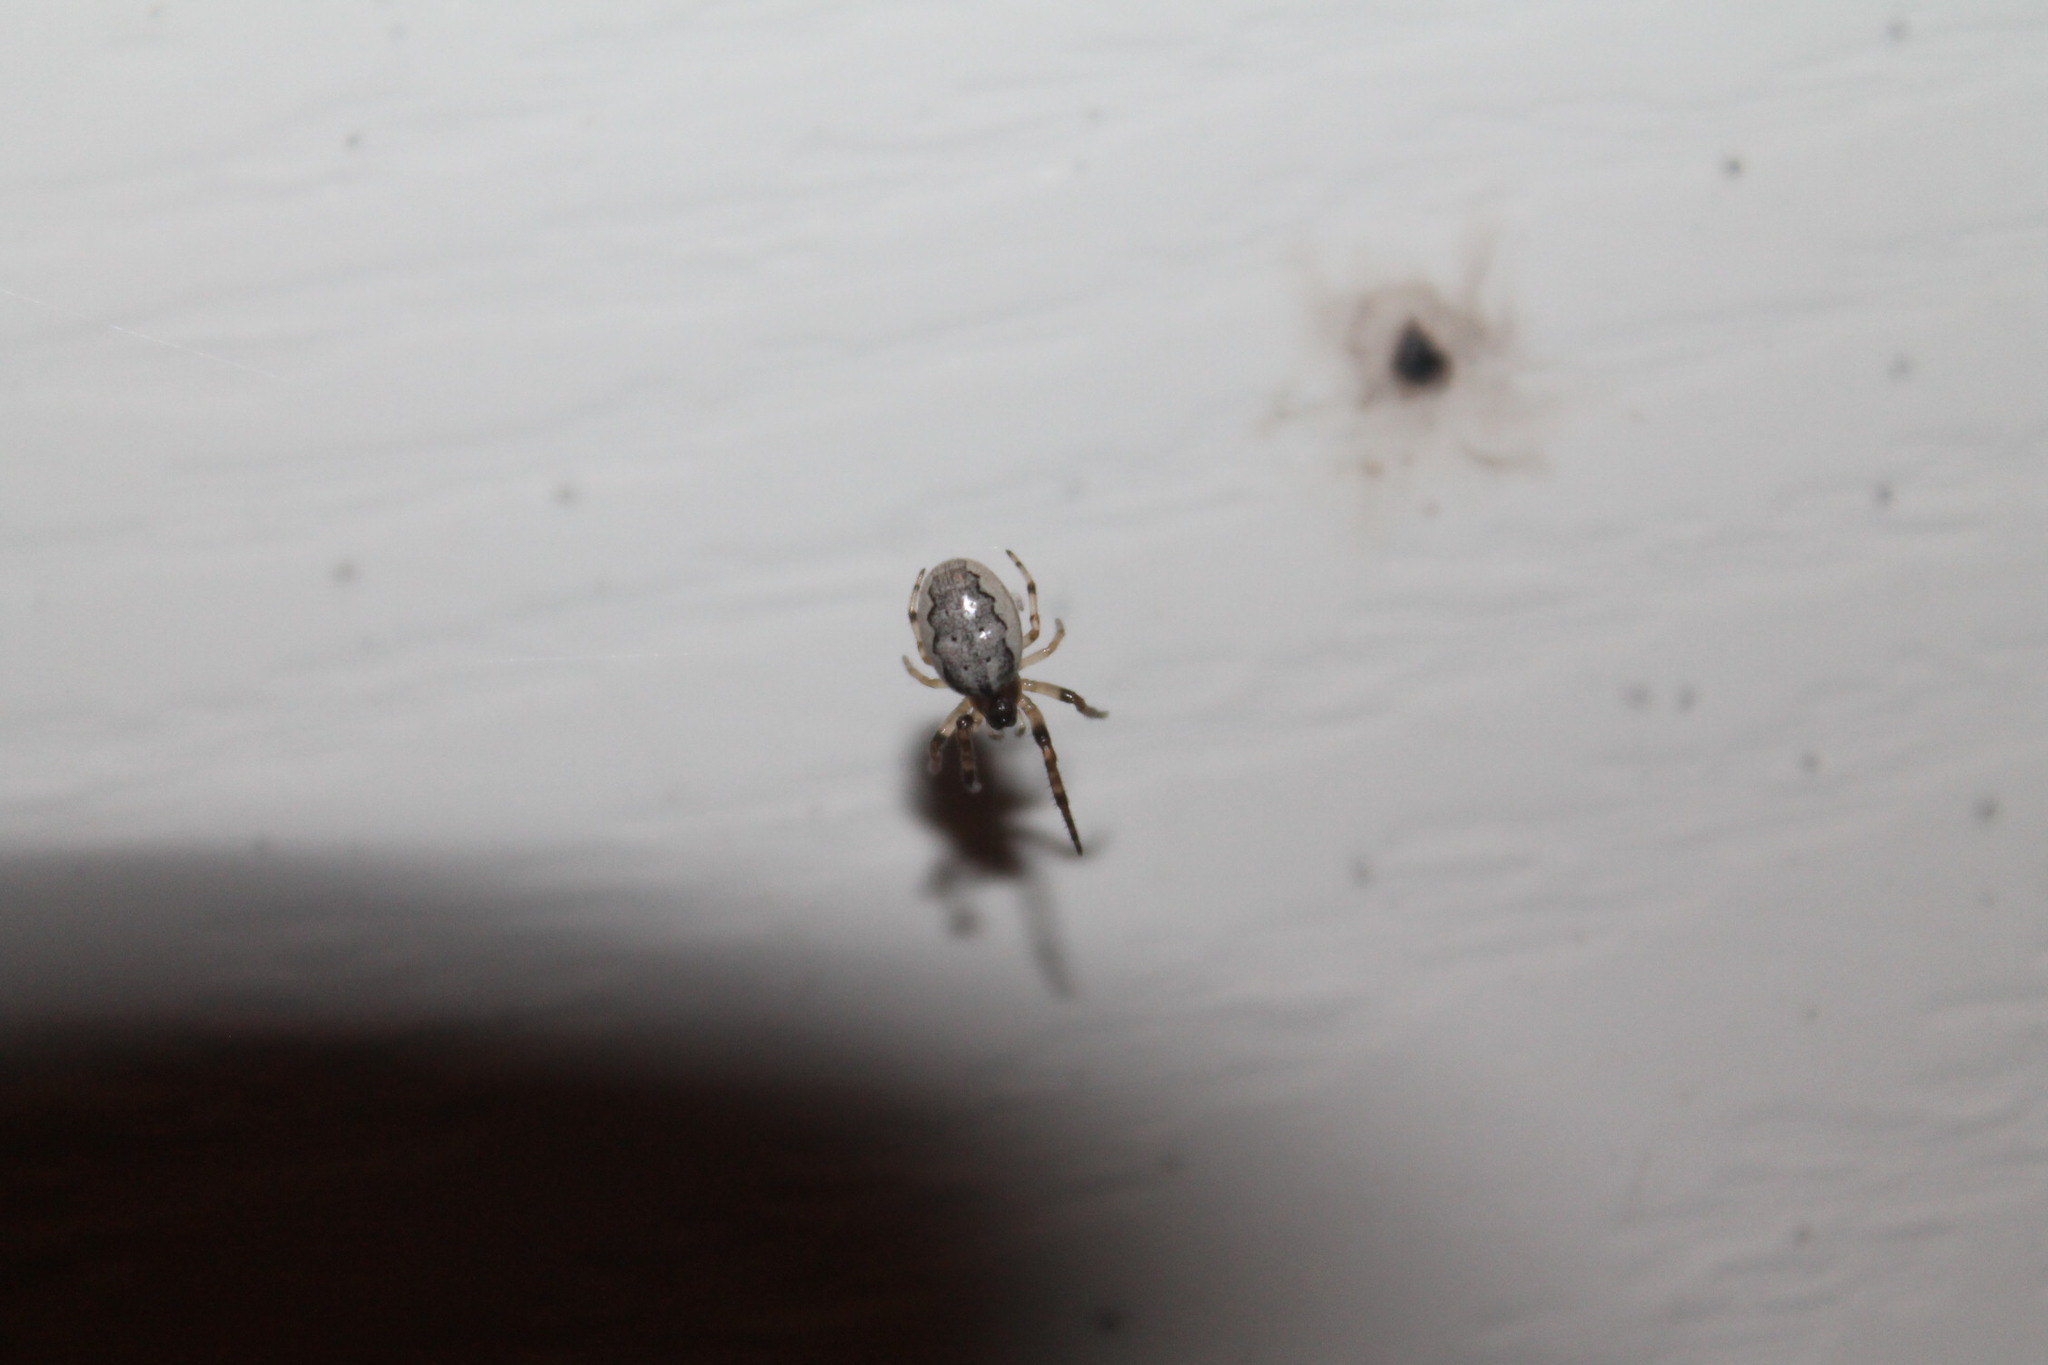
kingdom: Animalia
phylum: Arthropoda
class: Arachnida
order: Araneae
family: Araneidae
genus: Larinioides
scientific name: Larinioides cornutus
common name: Furrow orbweaver
